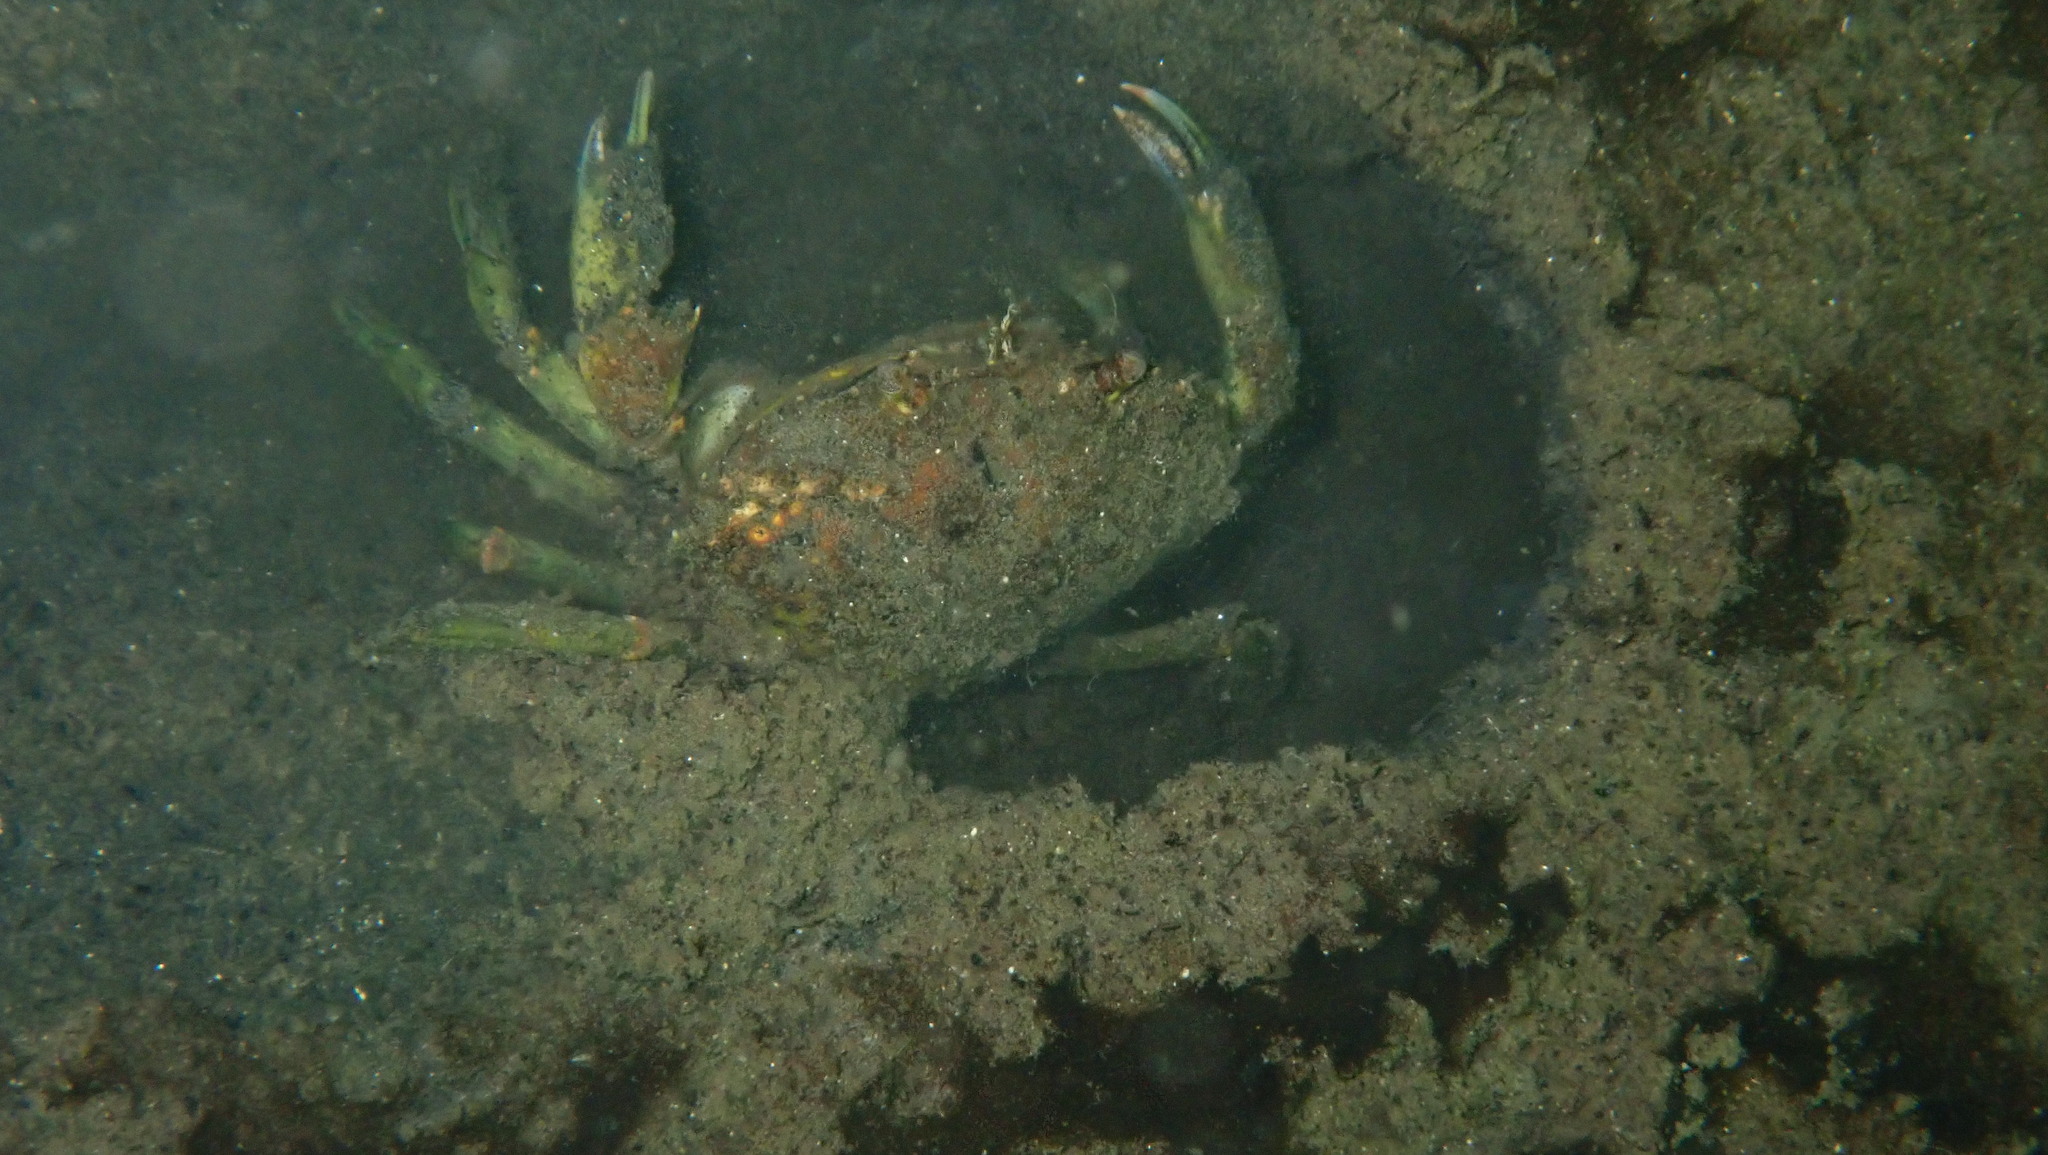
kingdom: Animalia
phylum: Arthropoda
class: Malacostraca
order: Decapoda
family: Carcinidae
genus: Carcinus
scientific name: Carcinus maenas
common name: European green crab
